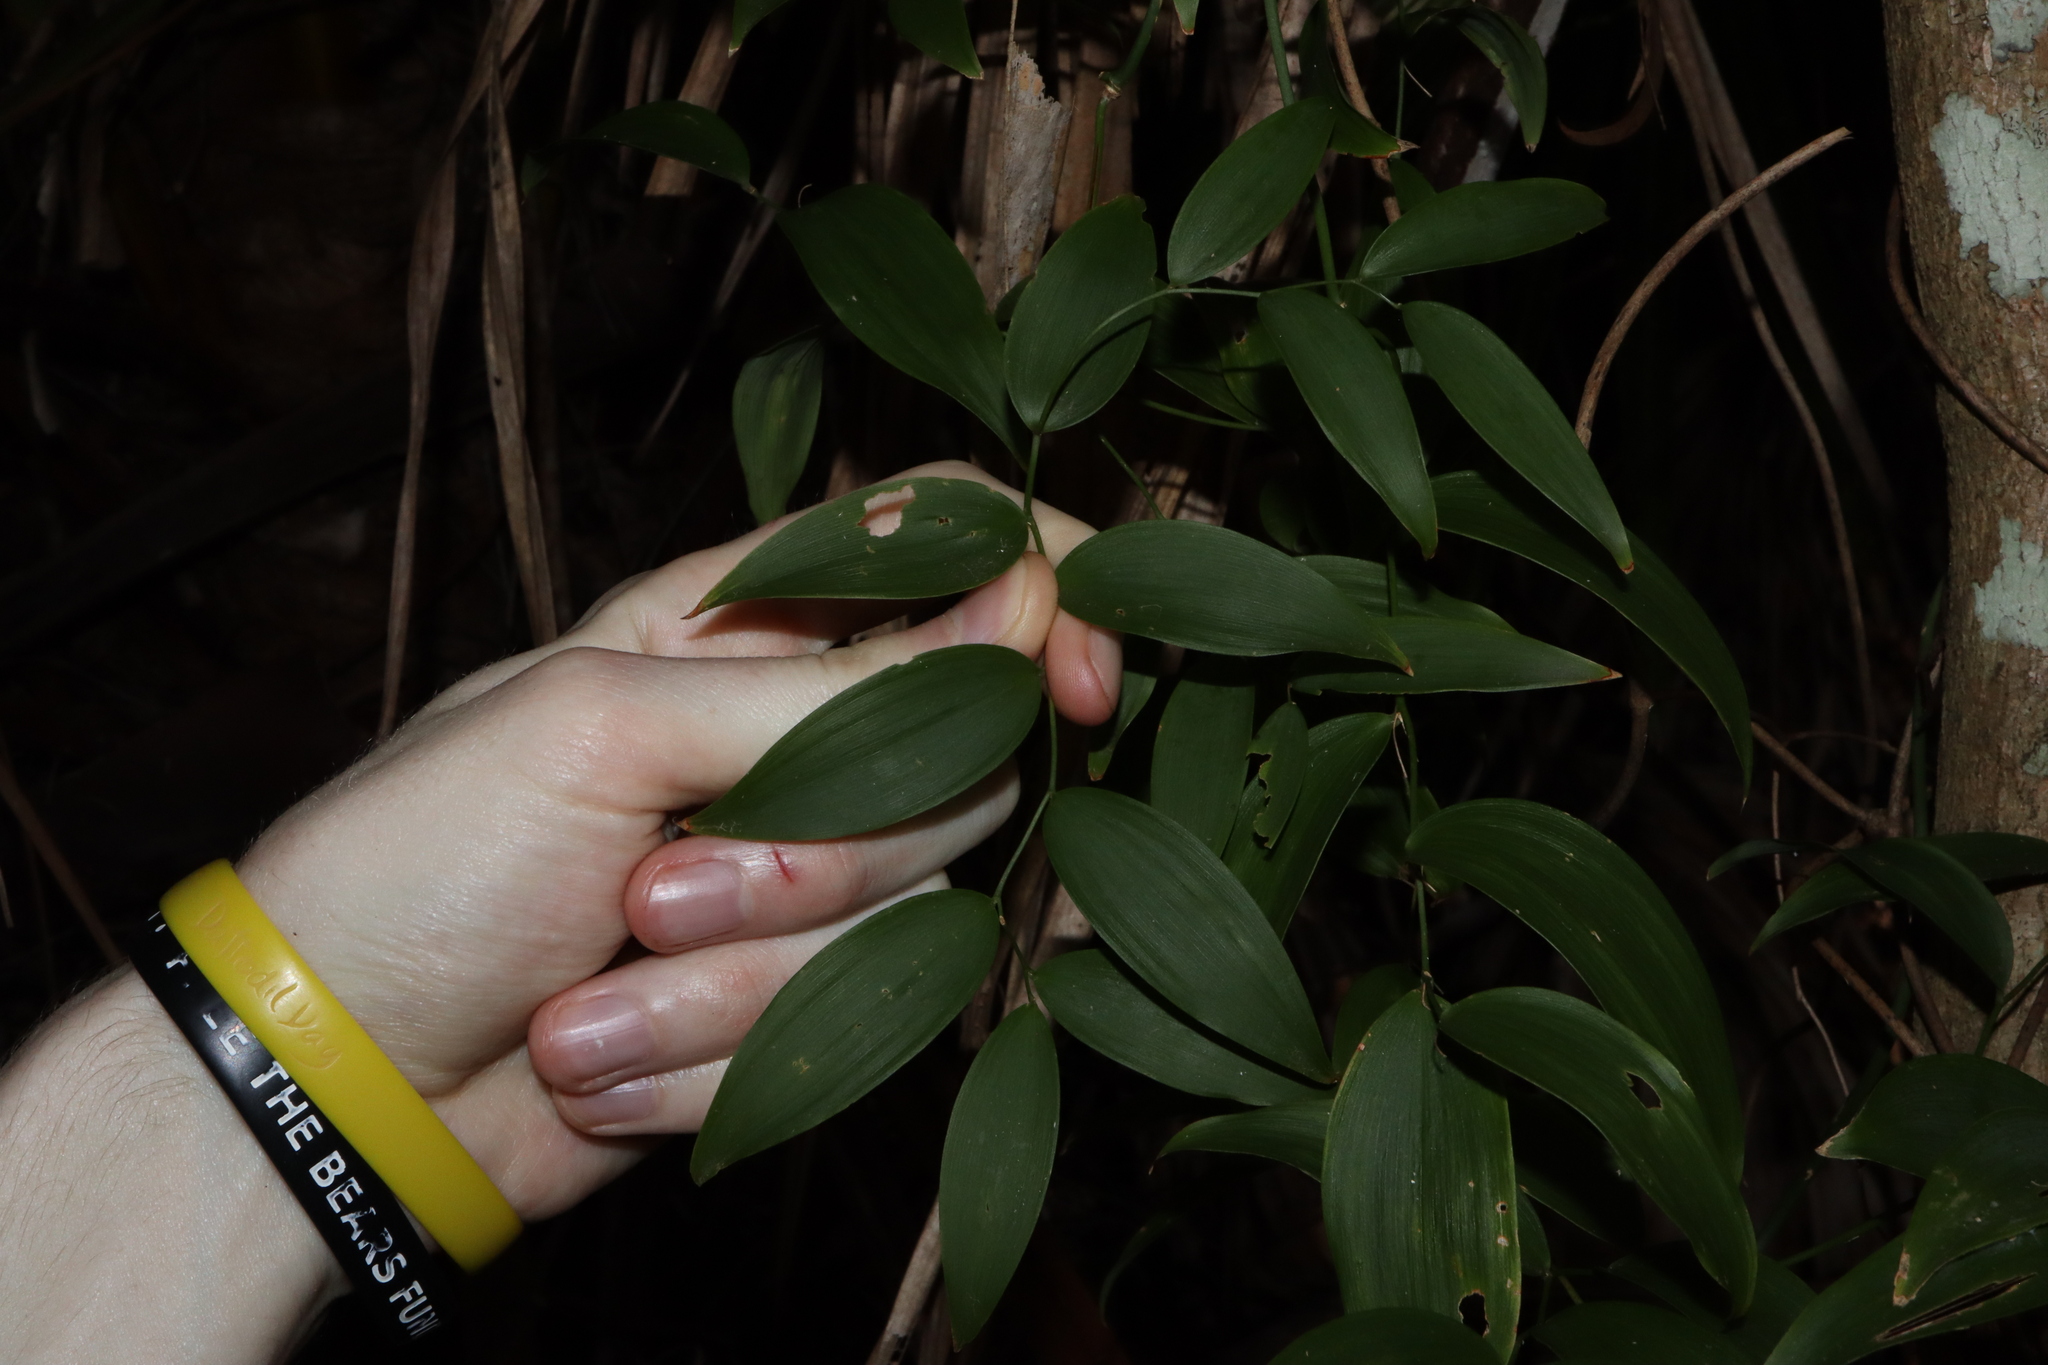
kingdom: Plantae
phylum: Tracheophyta
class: Liliopsida
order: Asparagales
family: Asparagaceae
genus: Eustrephus
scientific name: Eustrephus latifolius
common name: Orangevine
